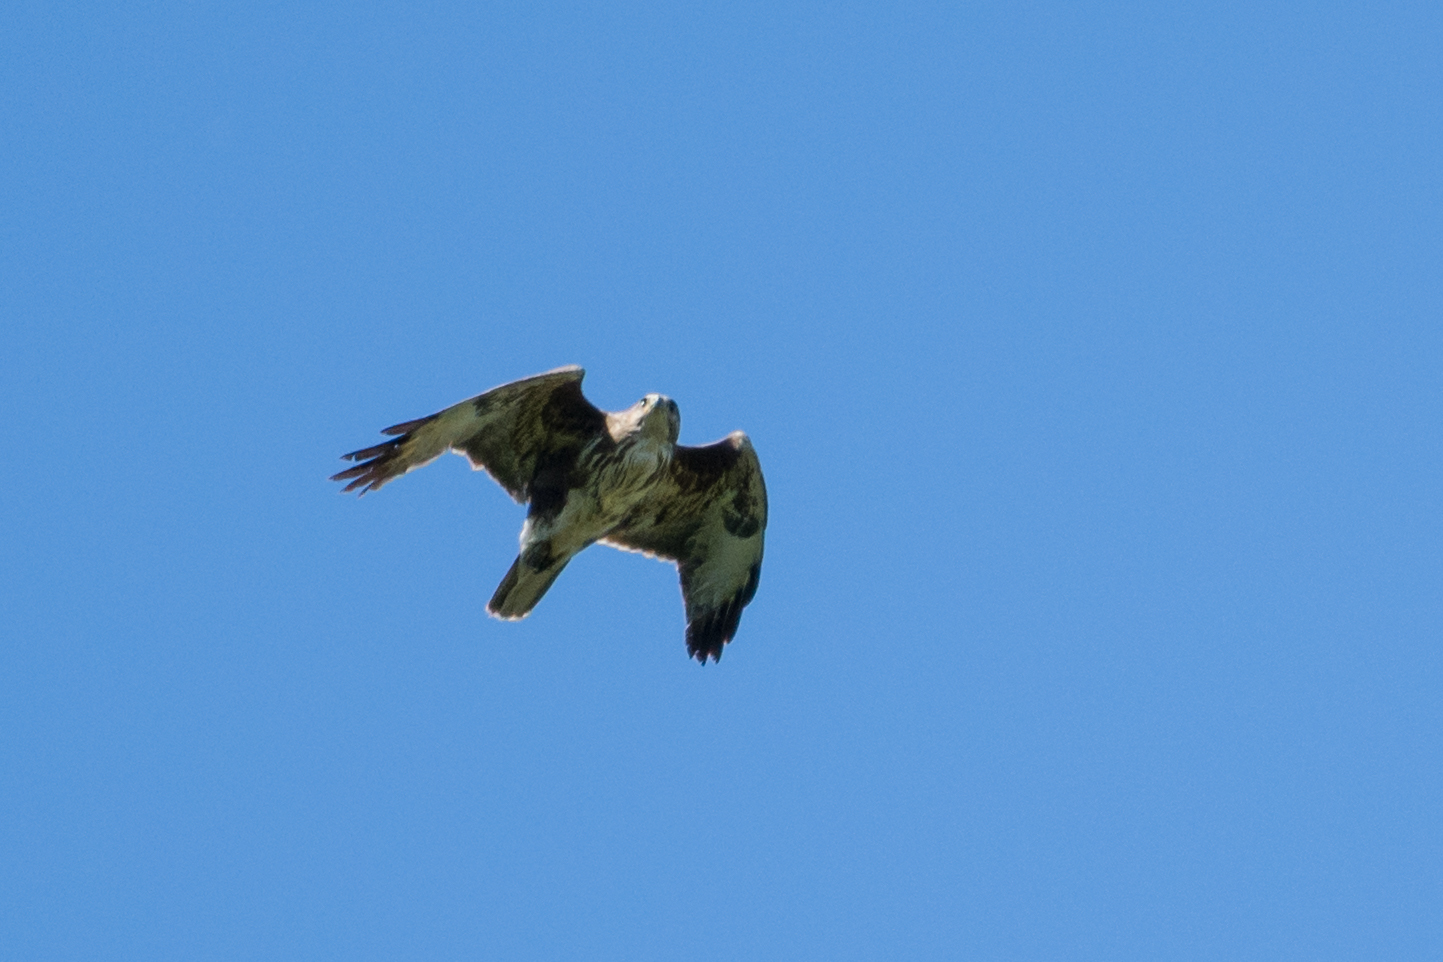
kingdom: Animalia
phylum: Chordata
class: Aves
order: Accipitriformes
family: Accipitridae
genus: Buteo
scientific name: Buteo buteo
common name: Common buzzard
